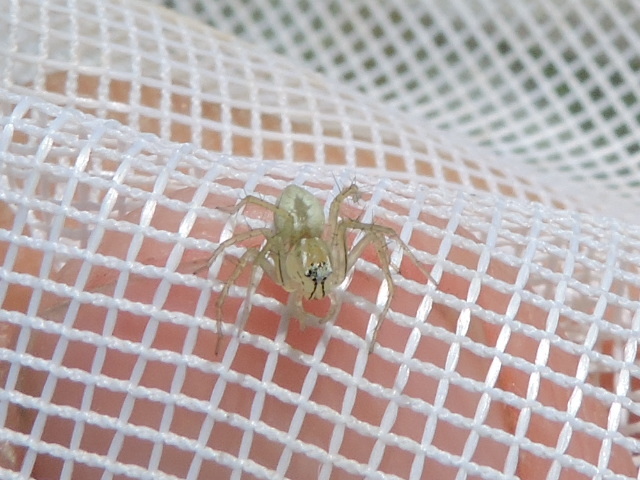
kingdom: Animalia
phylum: Arthropoda
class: Arachnida
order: Araneae
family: Oxyopidae
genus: Oxyopes
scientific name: Oxyopes salticus
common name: Lynx spiders
